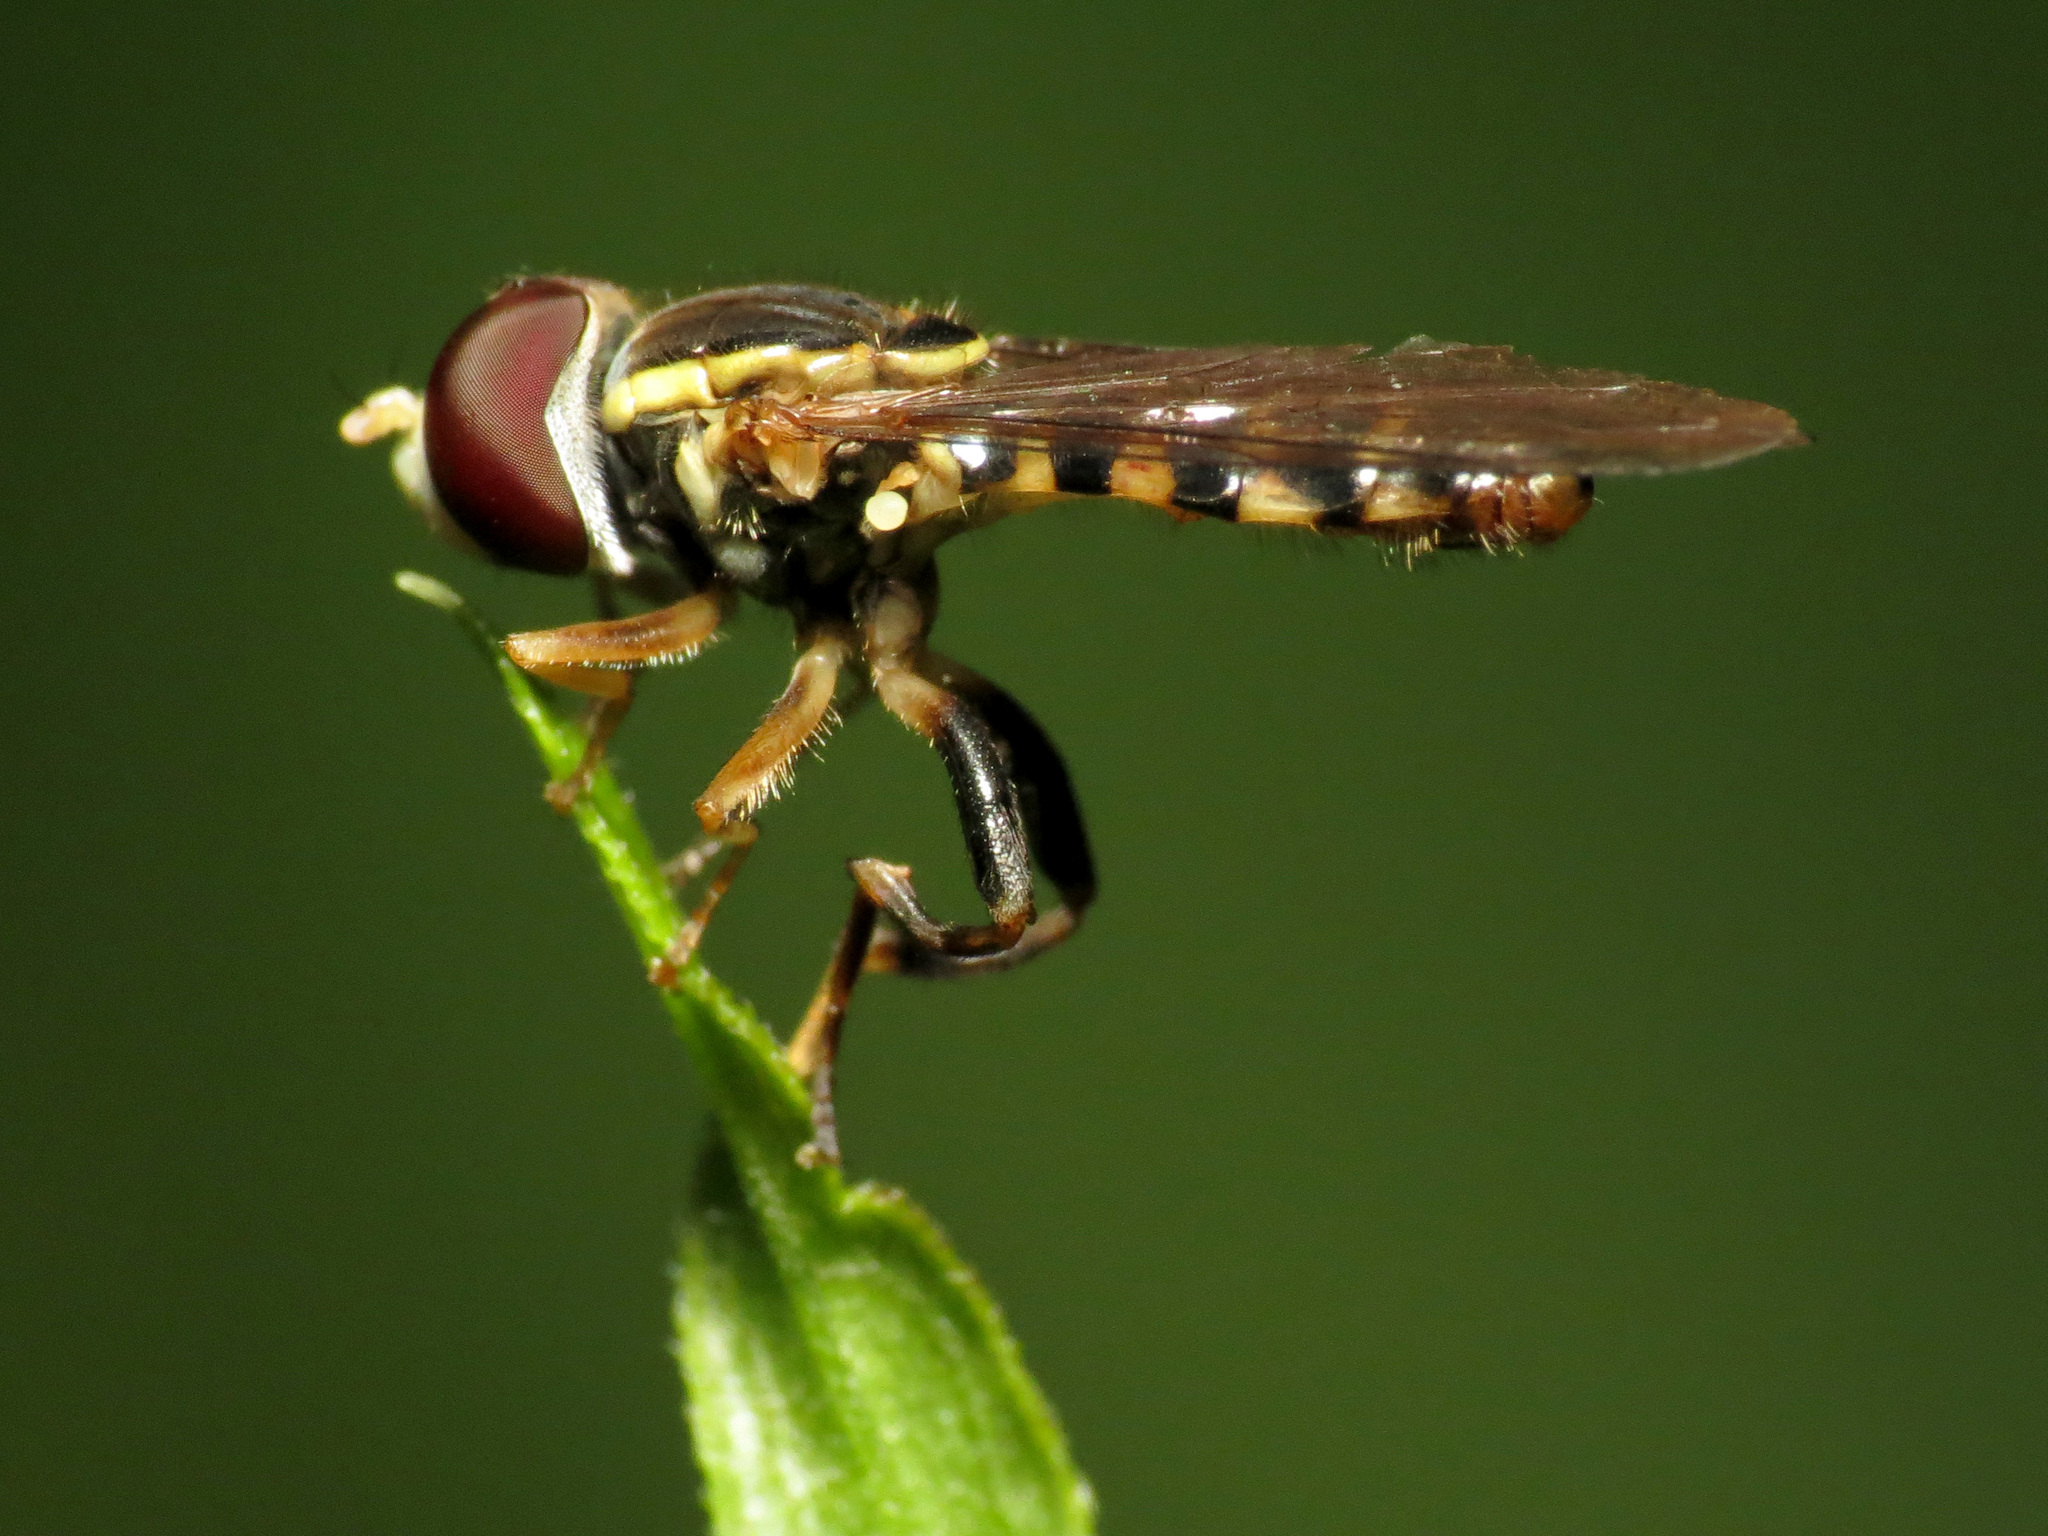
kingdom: Animalia
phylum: Arthropoda
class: Insecta
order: Diptera
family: Syrphidae
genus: Toxomerus
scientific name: Toxomerus geminatus
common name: Eastern calligrapher
